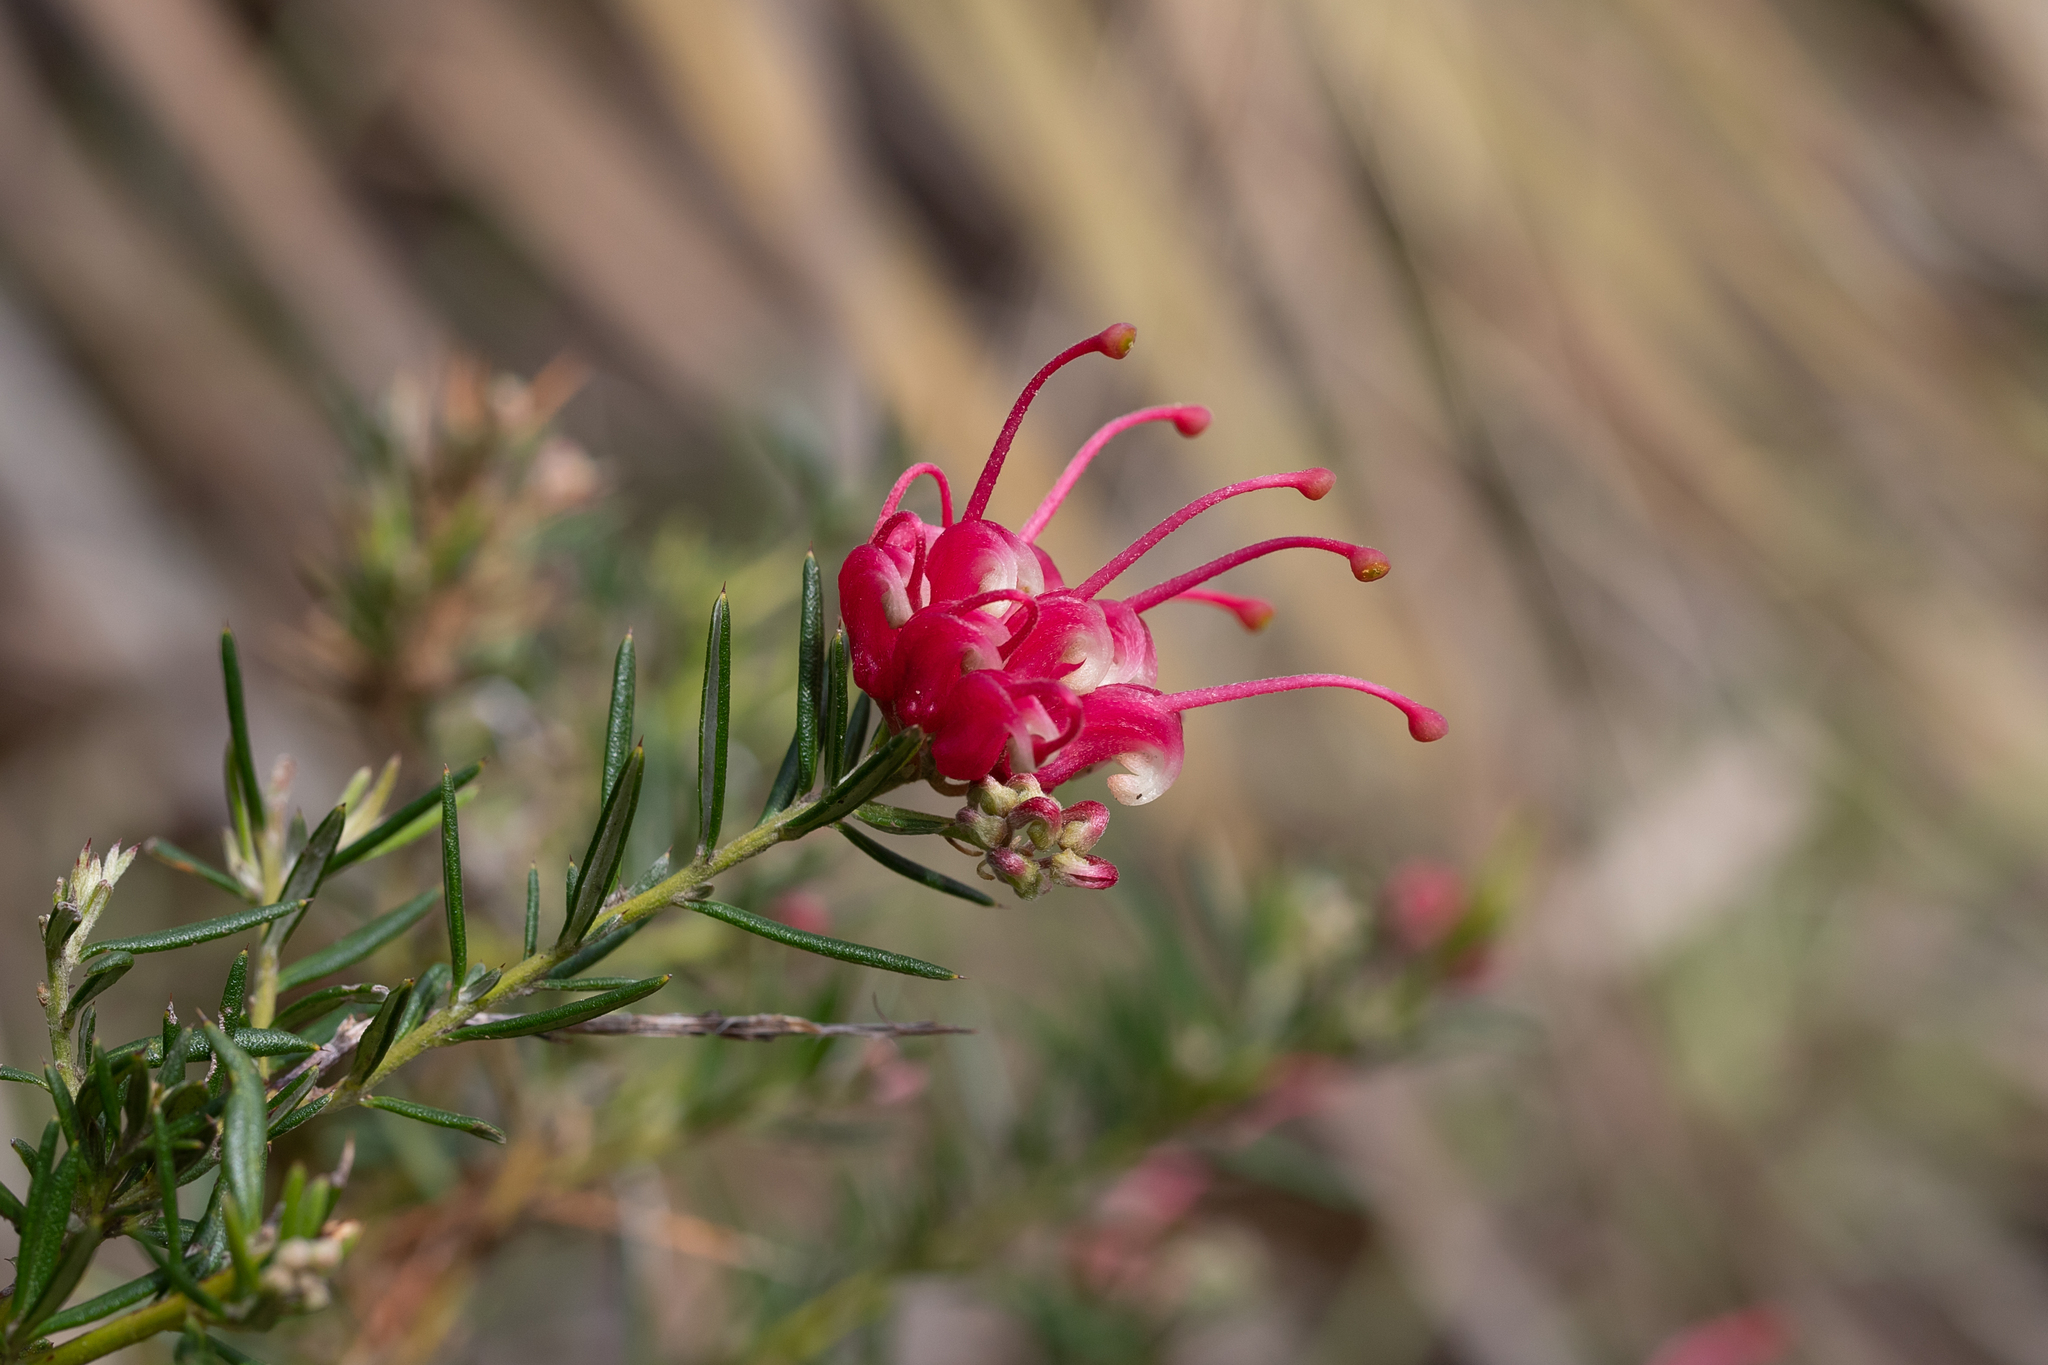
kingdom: Plantae
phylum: Tracheophyta
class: Magnoliopsida
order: Proteales
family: Proteaceae
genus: Grevillea
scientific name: Grevillea lavandulacea
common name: Lavender grevillea
